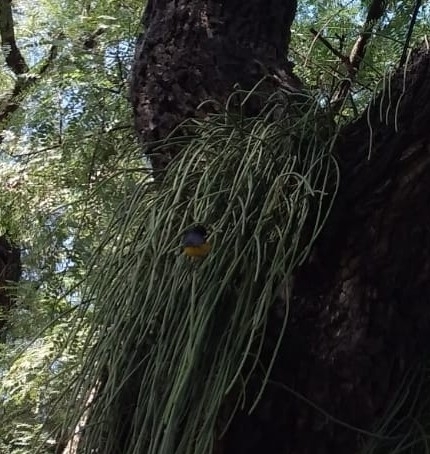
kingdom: Animalia
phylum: Chordata
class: Aves
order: Passeriformes
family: Fringillidae
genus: Euphonia
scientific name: Euphonia chlorotica
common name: Purple-throated euphonia
